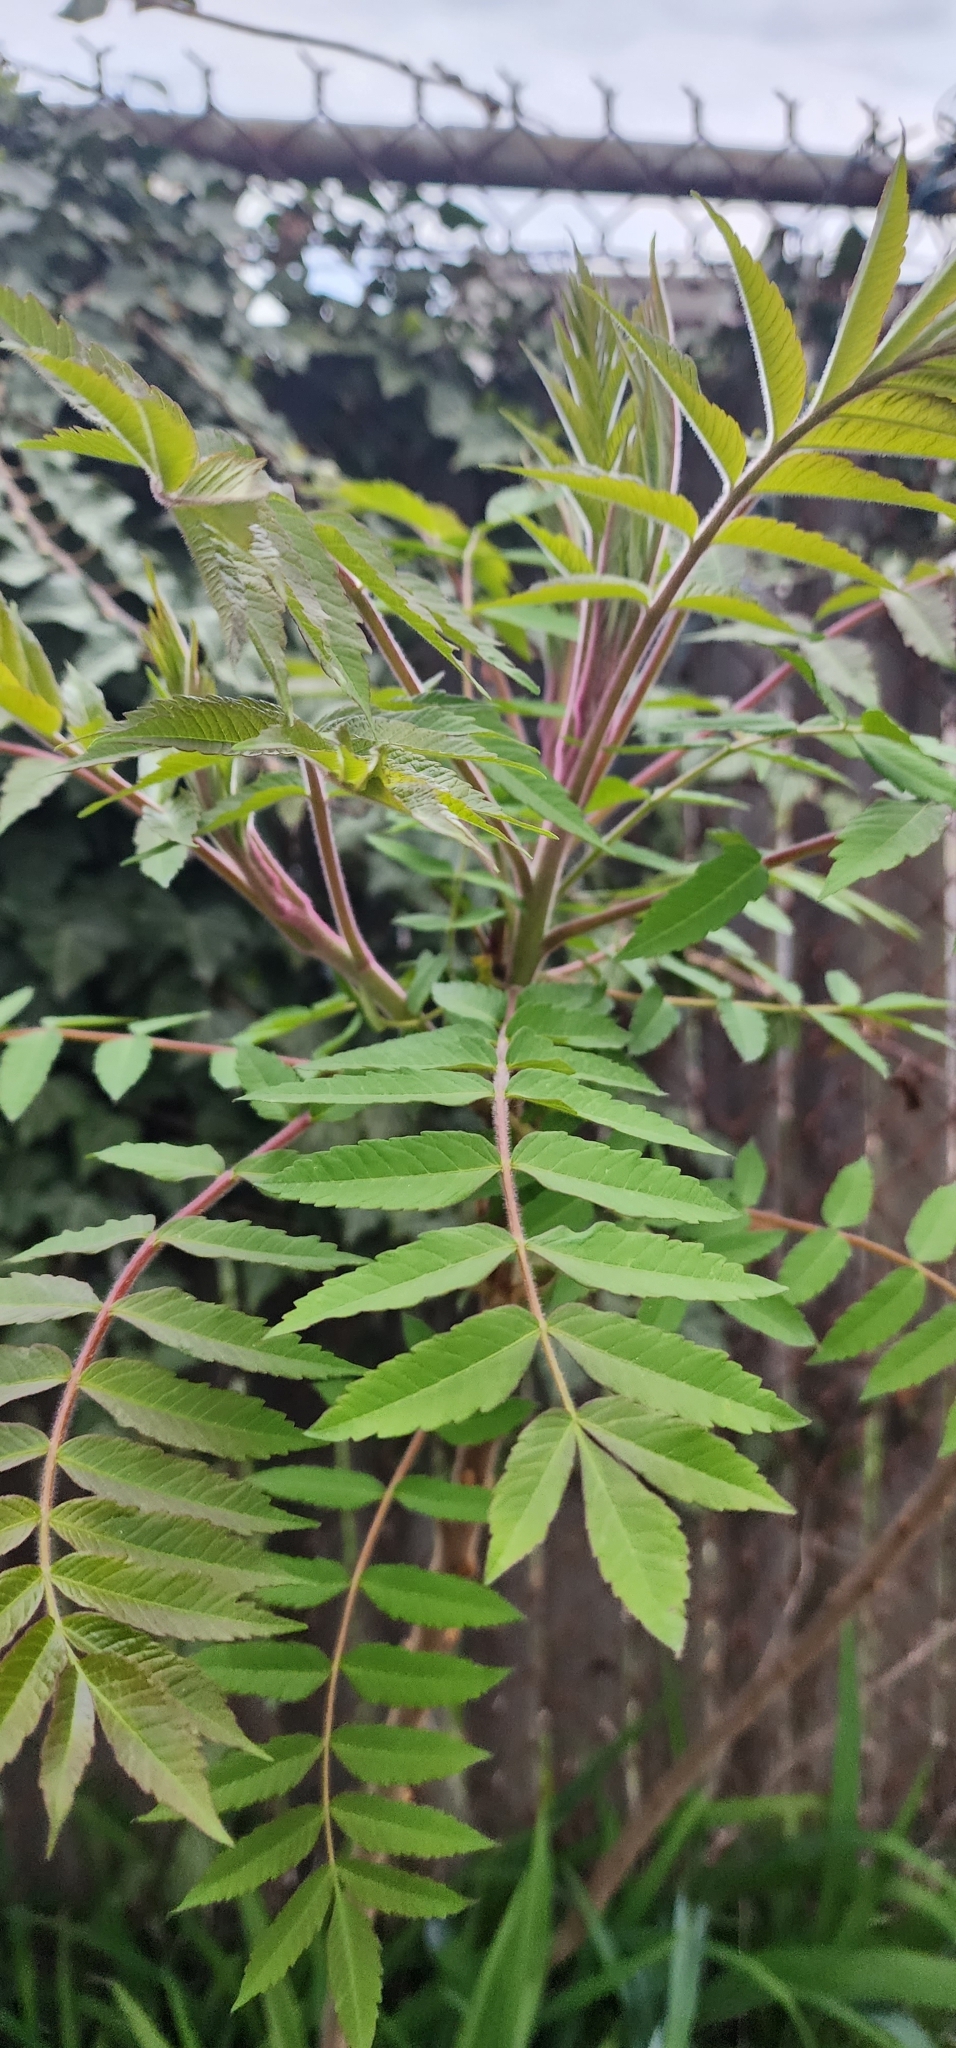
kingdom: Plantae
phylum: Tracheophyta
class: Magnoliopsida
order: Sapindales
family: Anacardiaceae
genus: Rhus
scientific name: Rhus typhina
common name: Staghorn sumac
